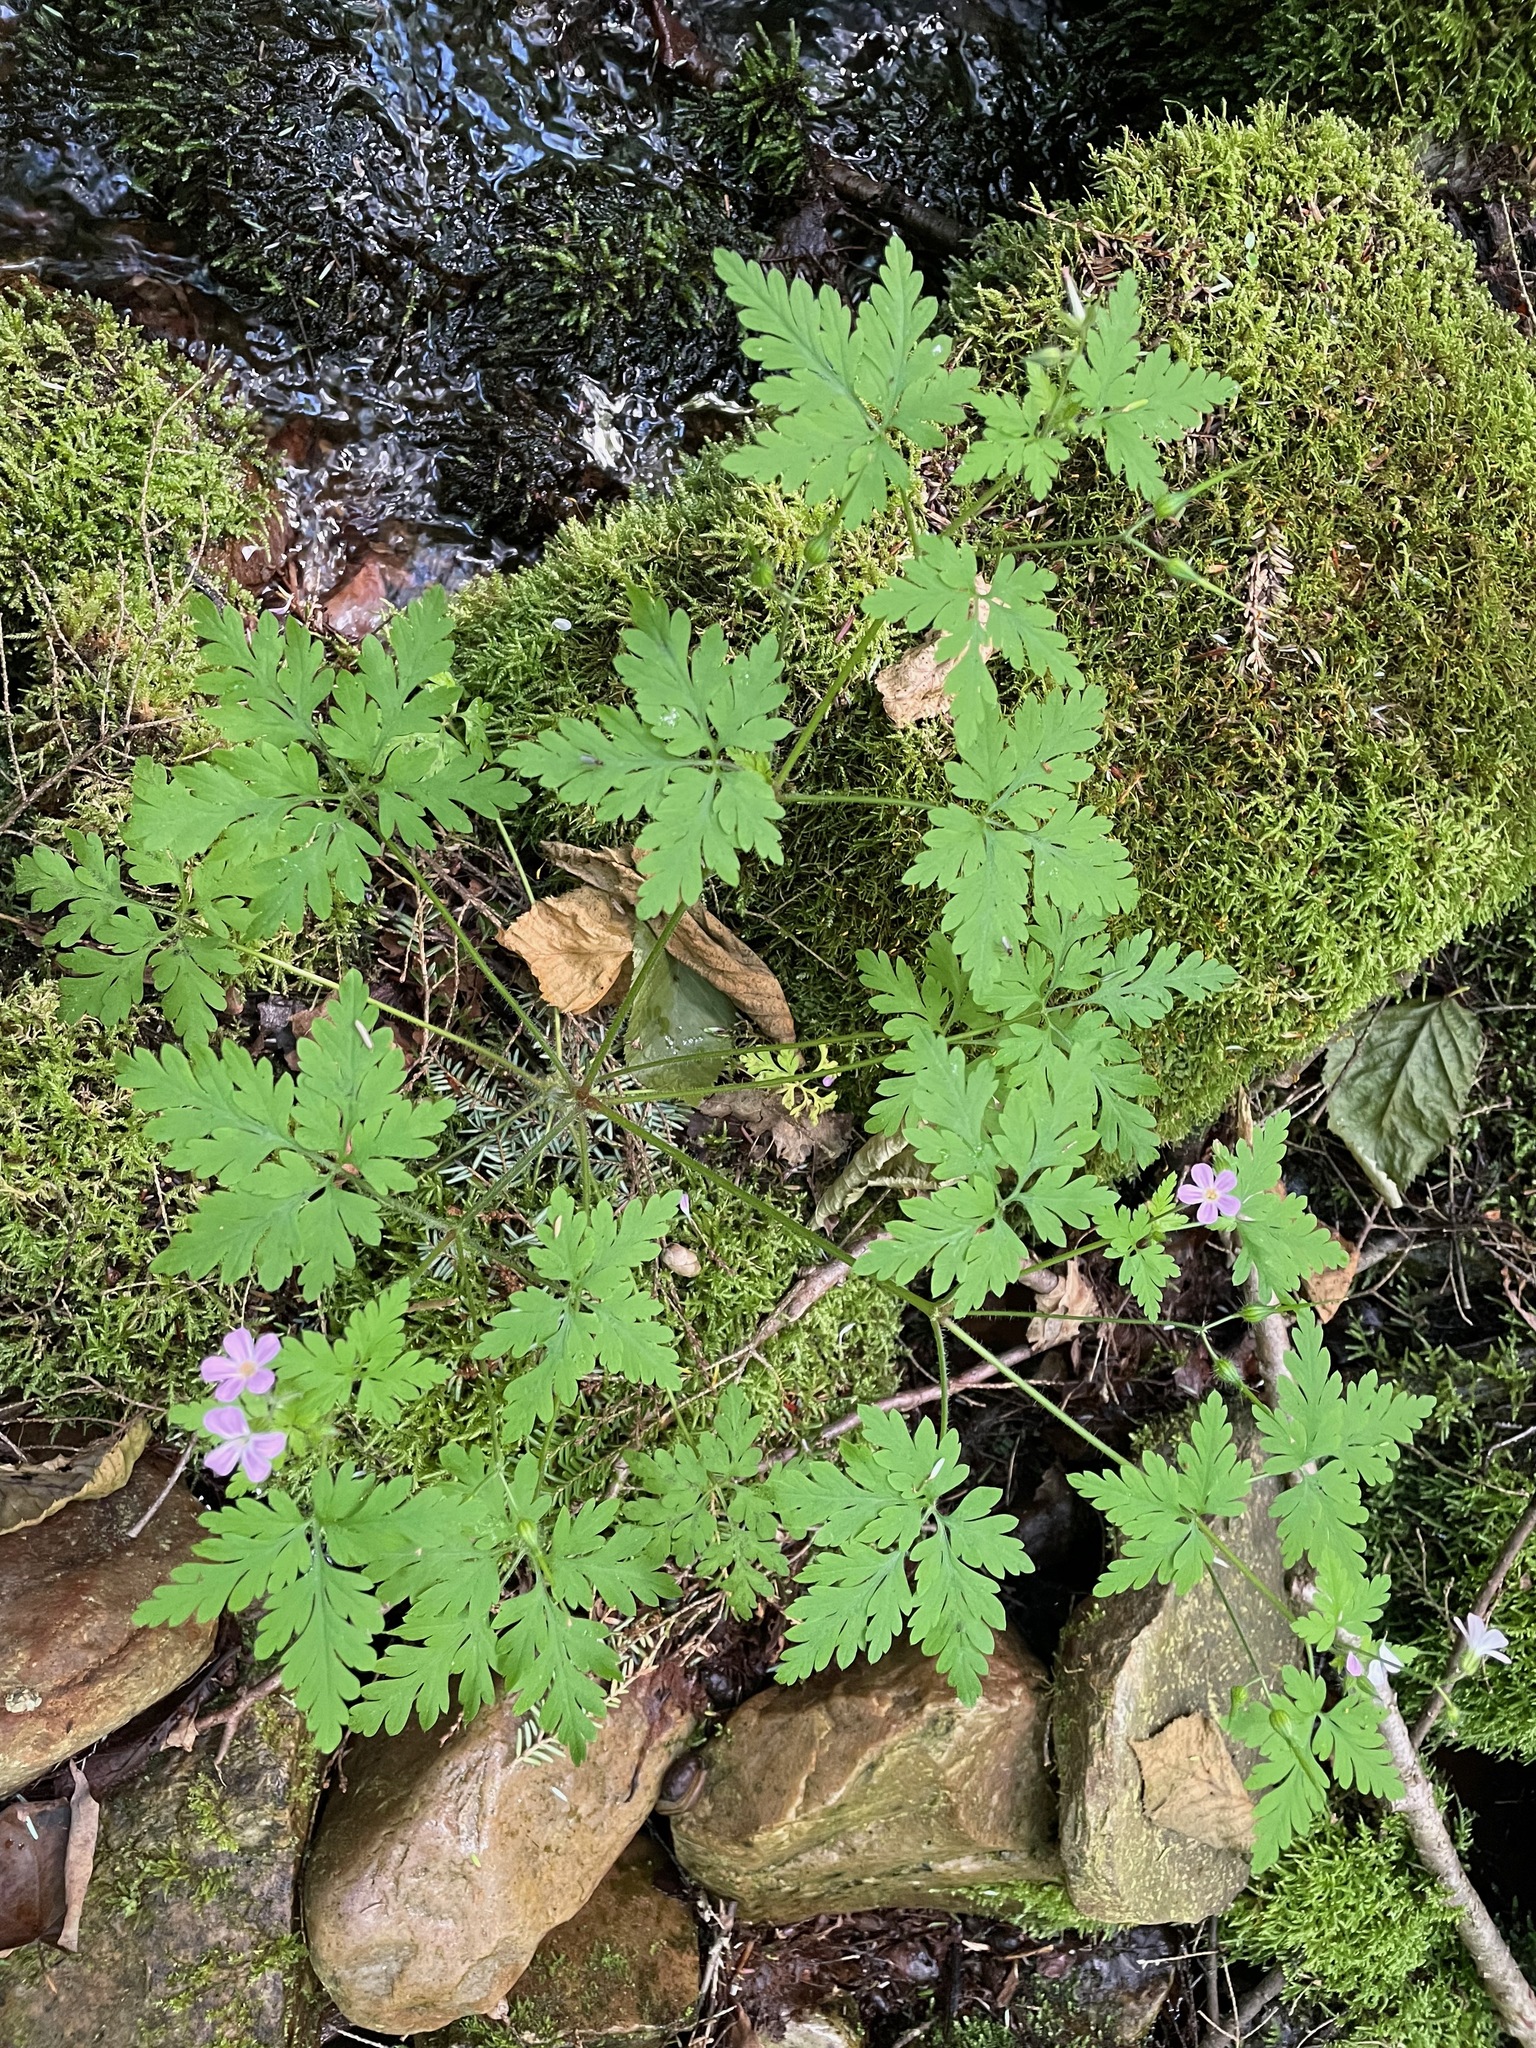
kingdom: Plantae
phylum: Tracheophyta
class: Magnoliopsida
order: Geraniales
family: Geraniaceae
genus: Geranium
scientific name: Geranium robertianum
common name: Herb-robert
